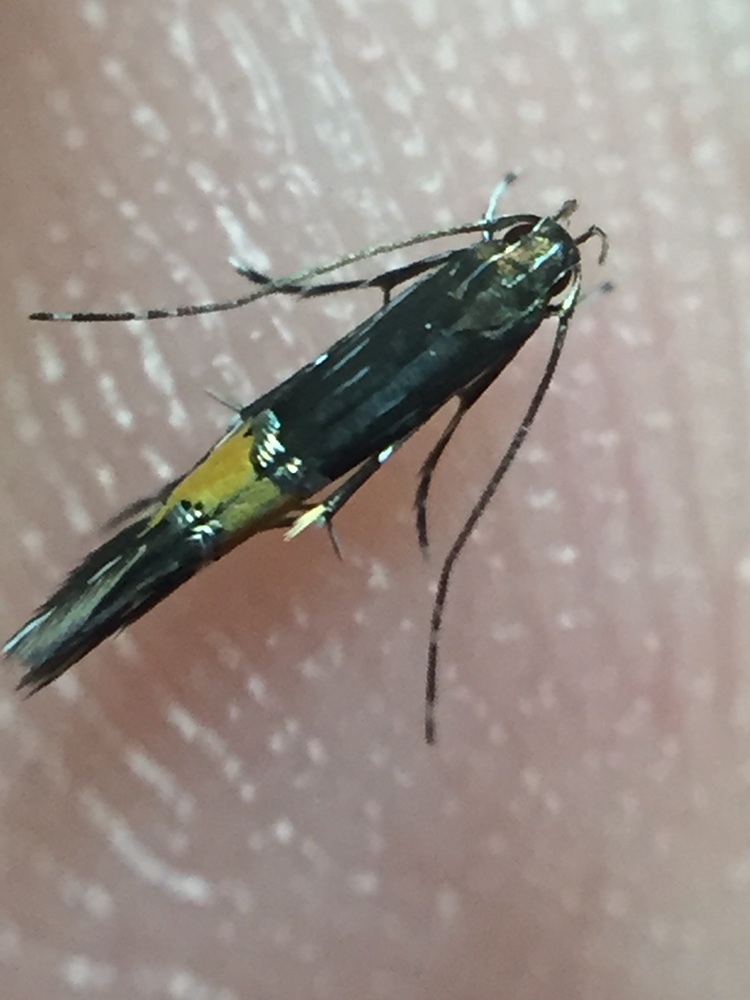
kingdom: Animalia
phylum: Arthropoda
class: Insecta
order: Lepidoptera
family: Cosmopterigidae
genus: Cosmopterix
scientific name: Cosmopterix attenuatella
